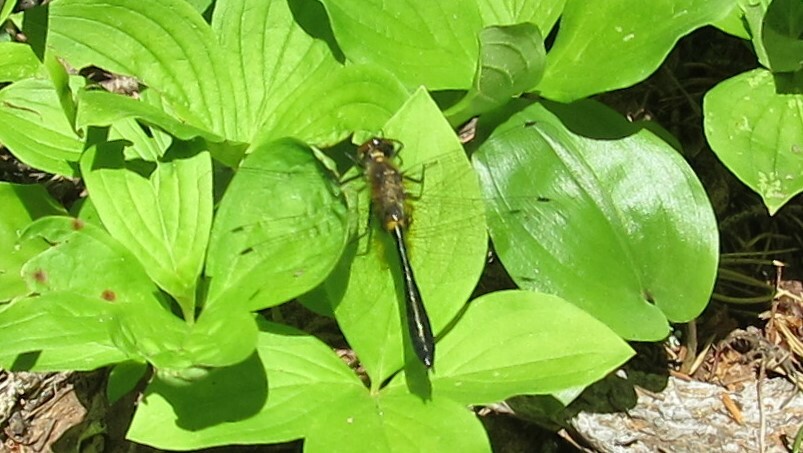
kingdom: Animalia
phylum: Arthropoda
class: Insecta
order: Odonata
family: Corduliidae
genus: Dorocordulia
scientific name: Dorocordulia libera
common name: Racket-tailed emerald
